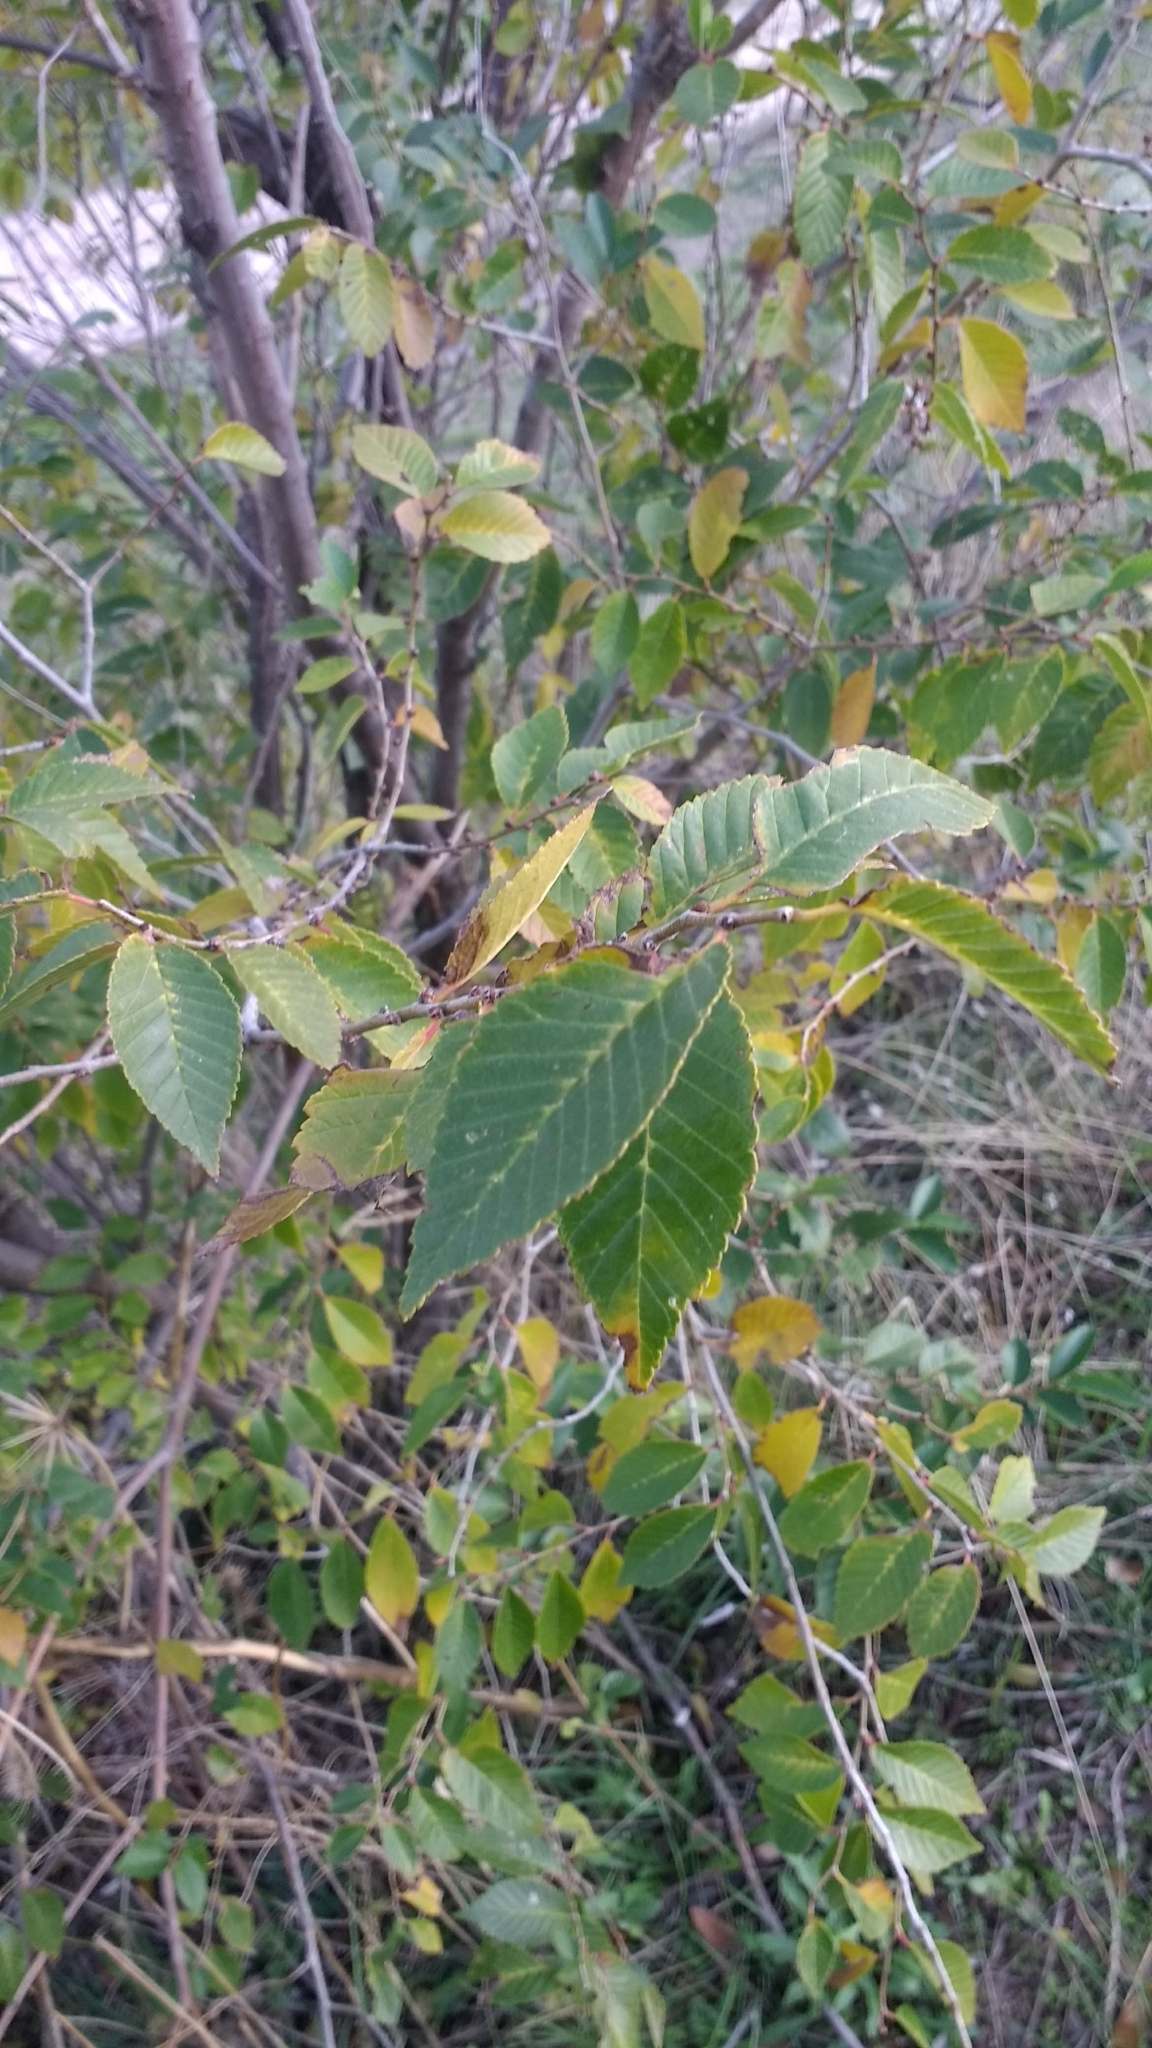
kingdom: Plantae
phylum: Tracheophyta
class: Magnoliopsida
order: Rosales
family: Ulmaceae
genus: Ulmus
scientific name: Ulmus pumila
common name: Siberian elm
